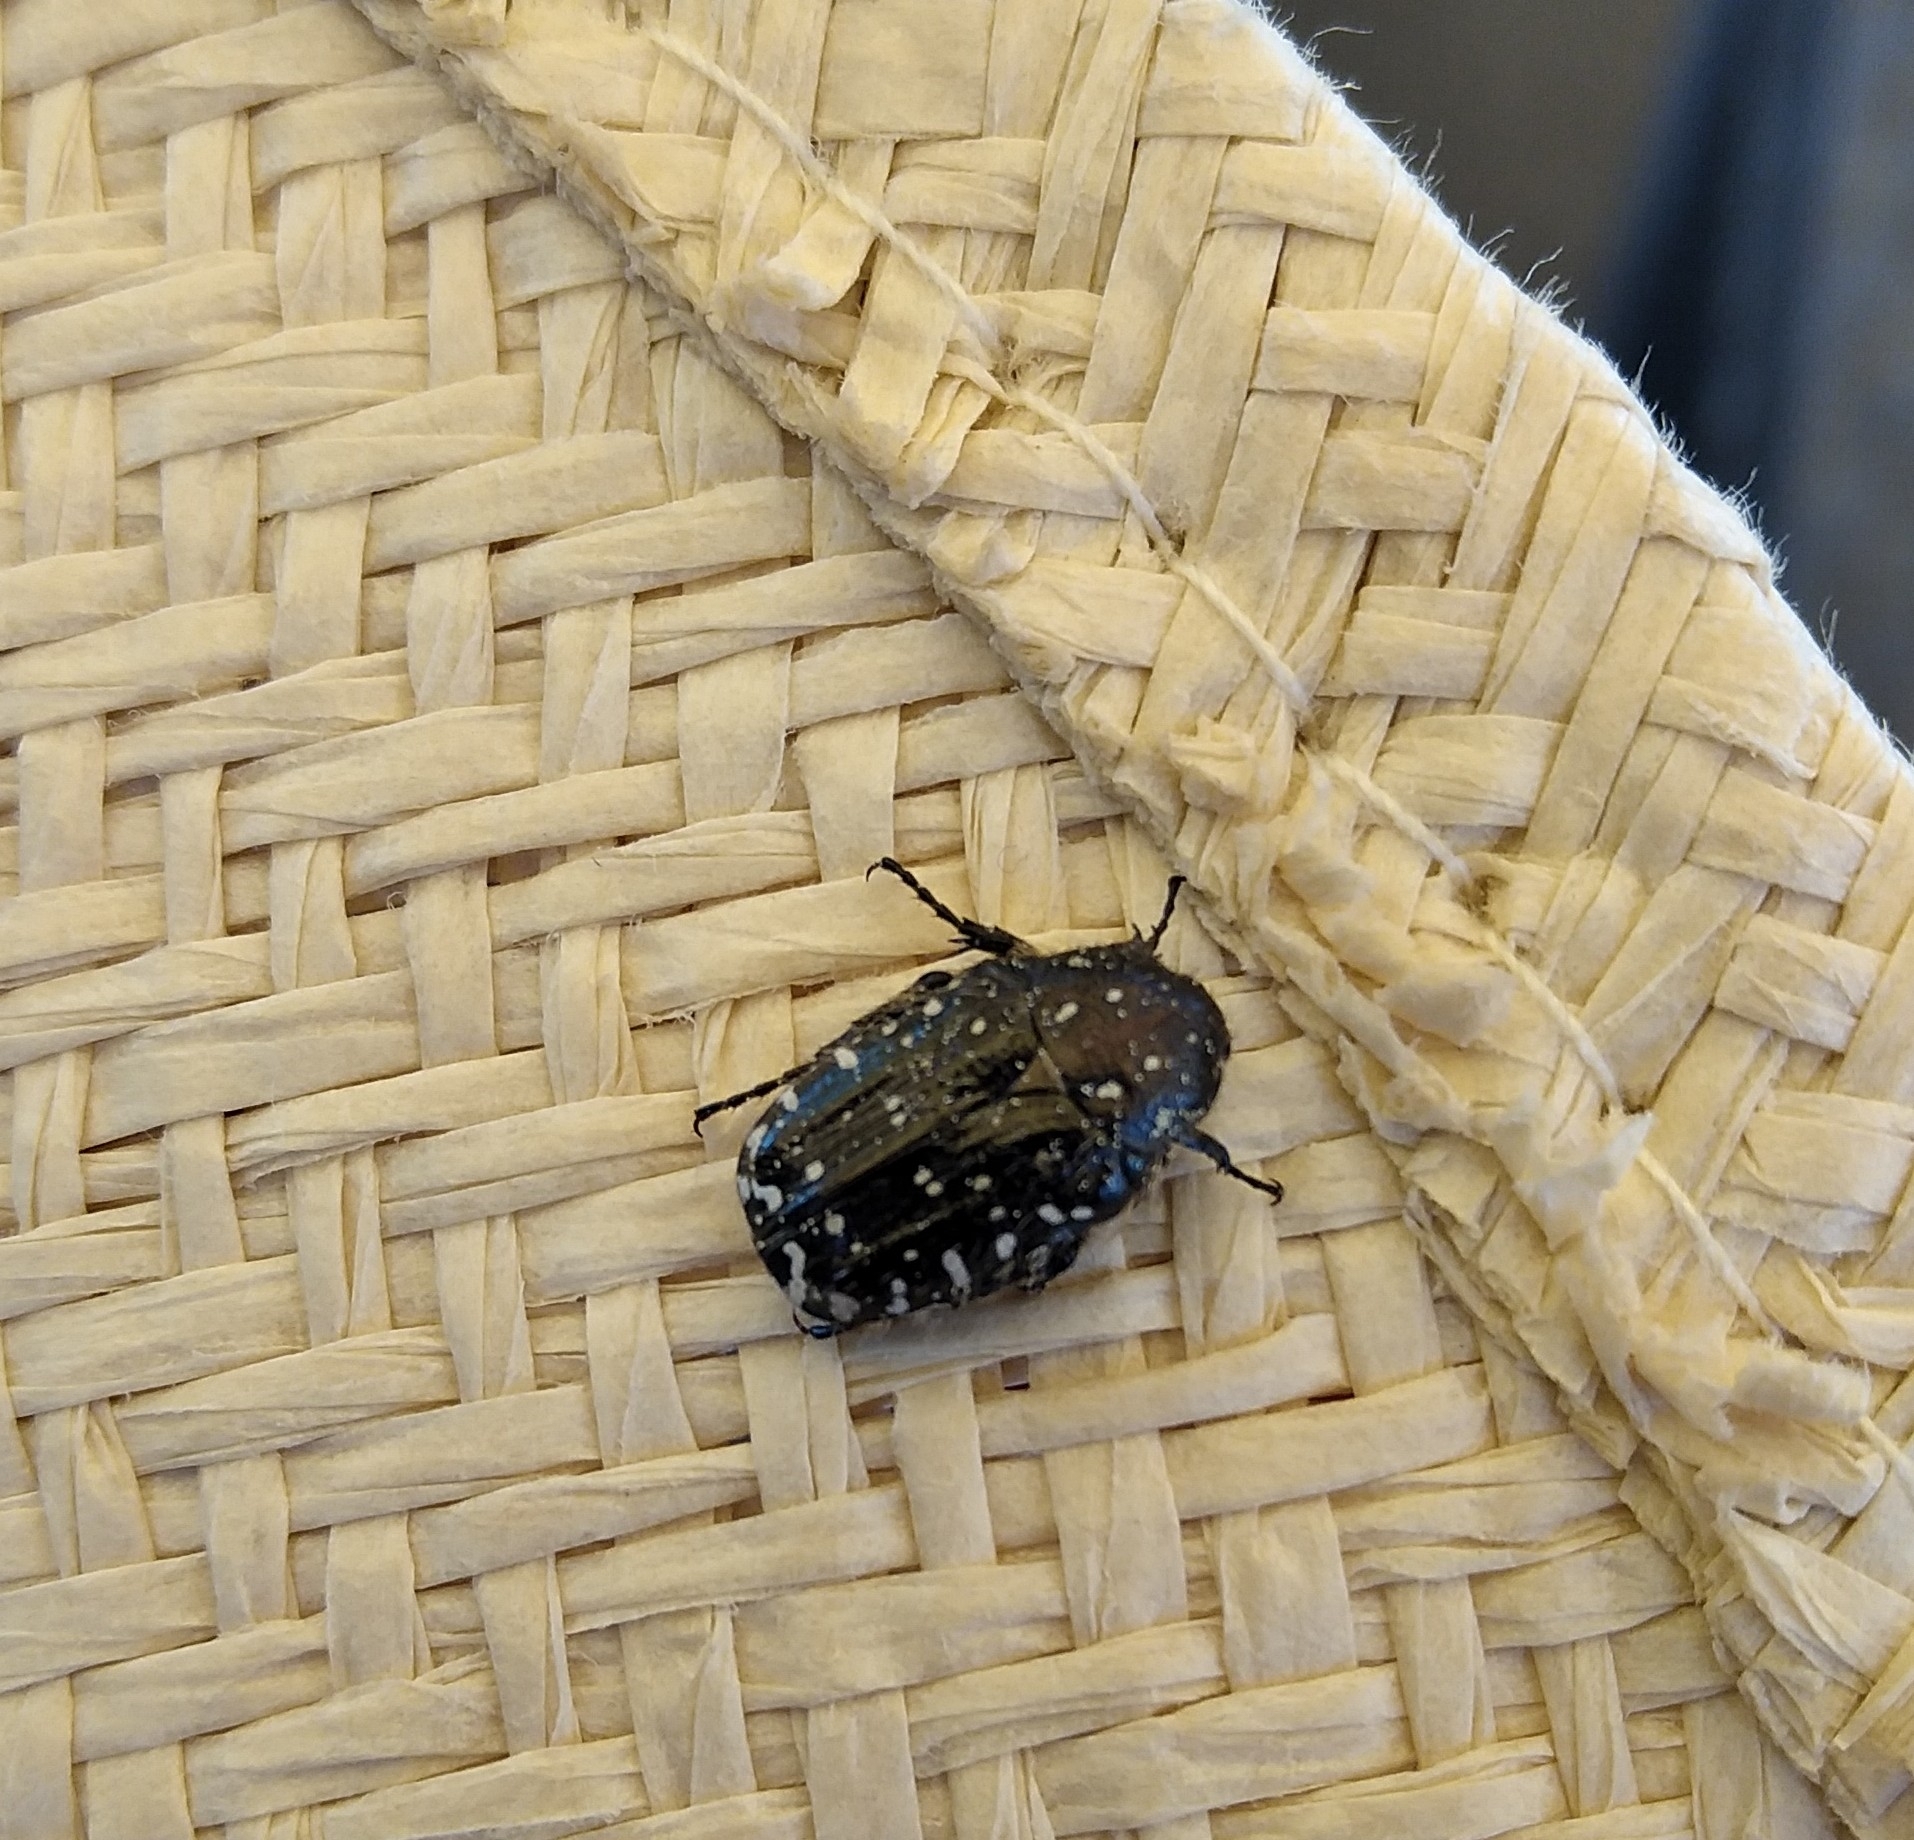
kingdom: Animalia
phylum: Arthropoda
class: Insecta
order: Coleoptera
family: Scarabaeidae
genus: Oxythyrea
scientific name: Oxythyrea funesta
